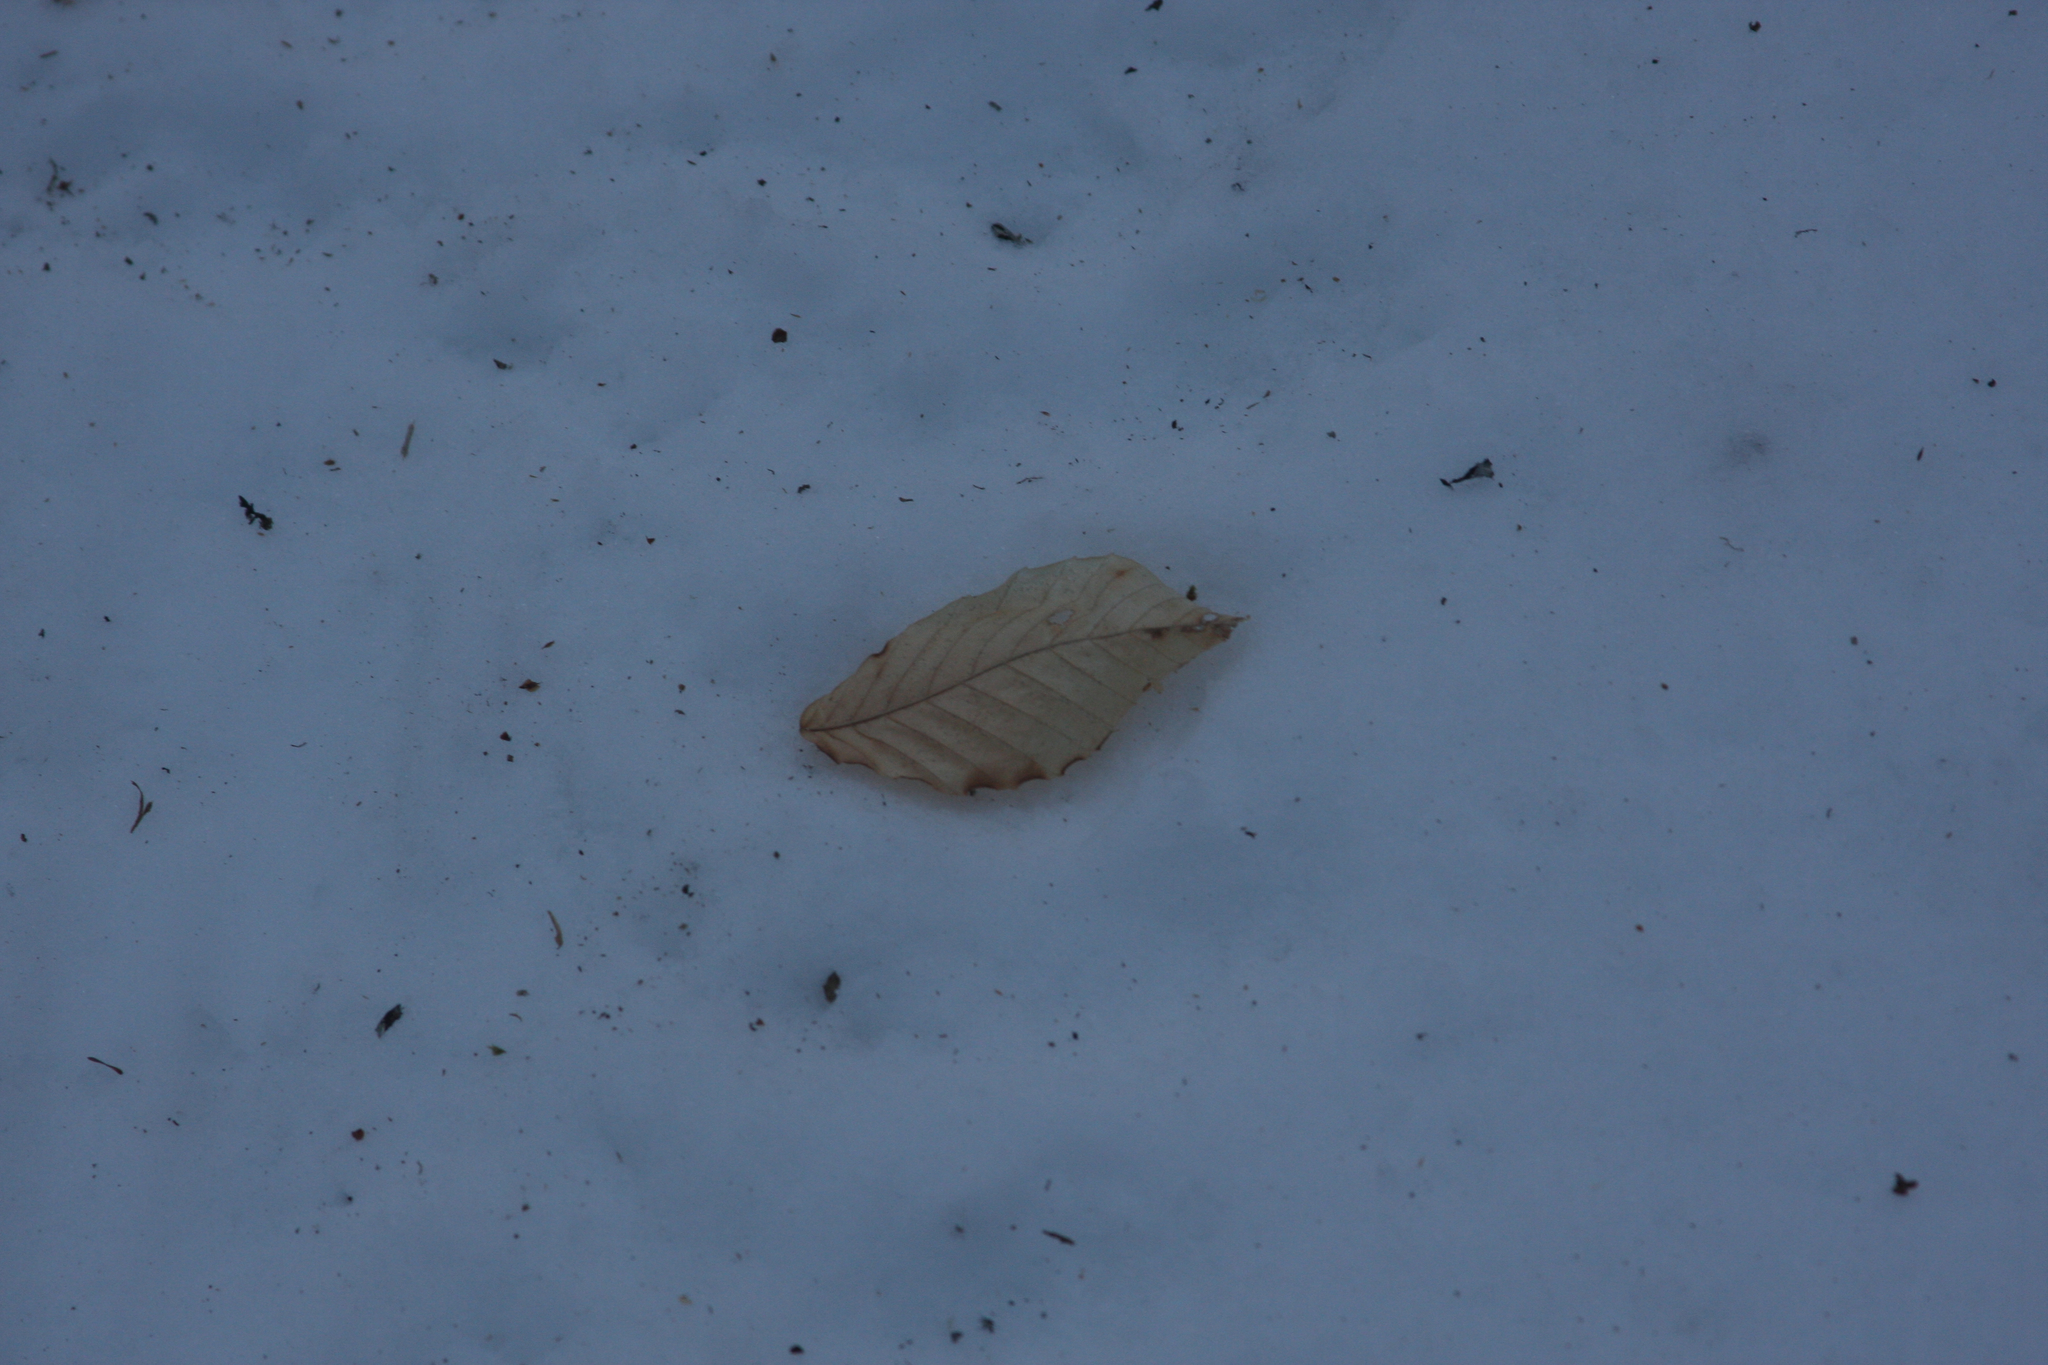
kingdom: Plantae
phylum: Tracheophyta
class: Magnoliopsida
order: Fagales
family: Fagaceae
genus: Fagus
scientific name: Fagus grandifolia
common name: American beech
